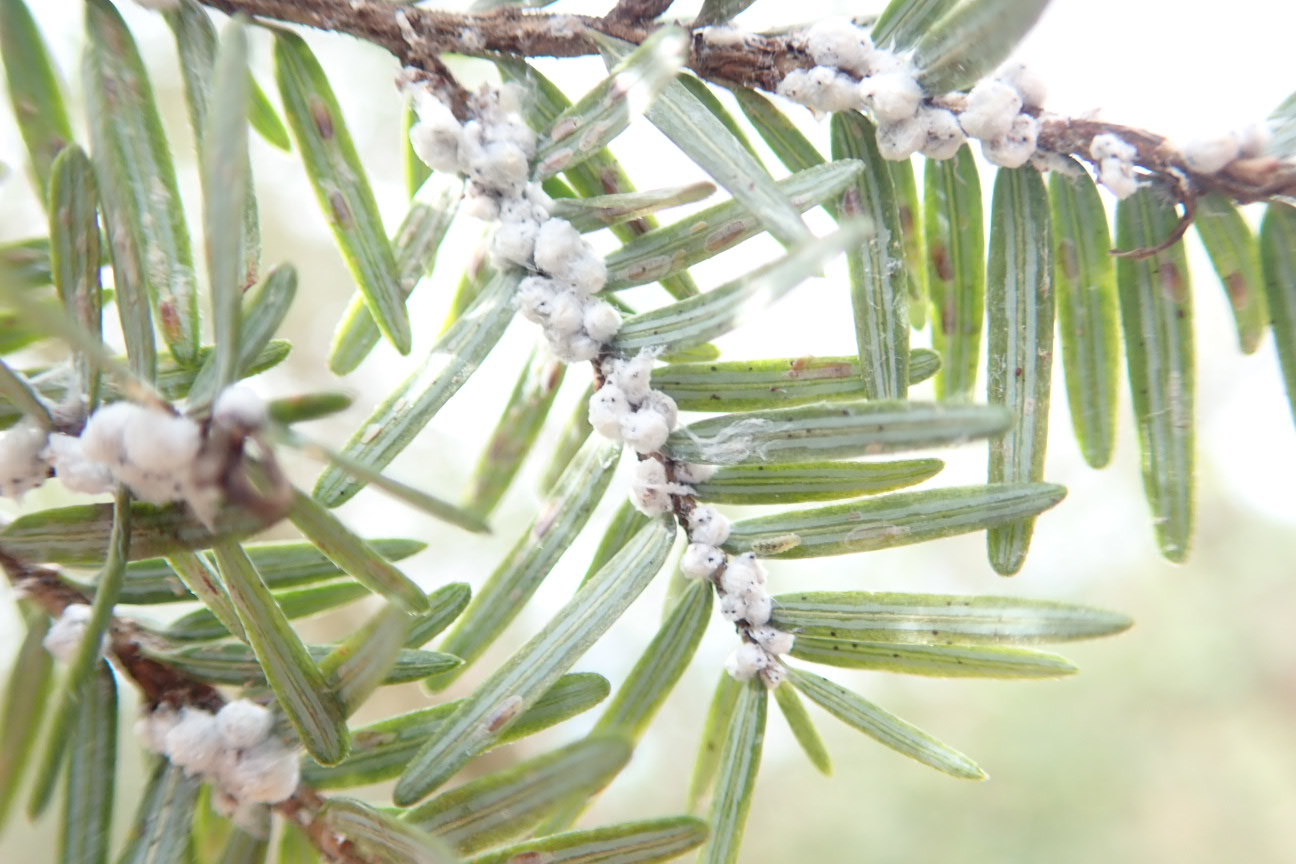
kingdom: Animalia
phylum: Arthropoda
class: Insecta
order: Hemiptera
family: Adelgidae
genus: Adelges
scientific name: Adelges tsugae
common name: Hemlock woolly adelgid
